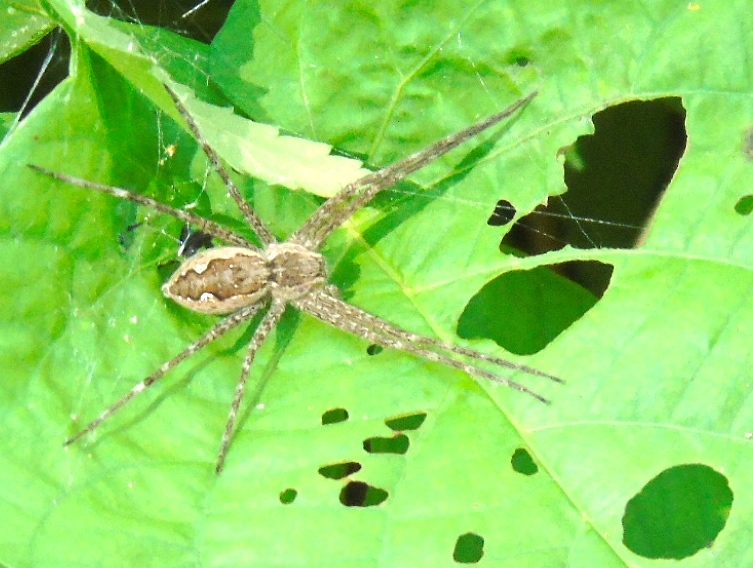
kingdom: Animalia
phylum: Arthropoda
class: Arachnida
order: Araneae
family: Pisauridae
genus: Tinus
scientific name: Tinus
